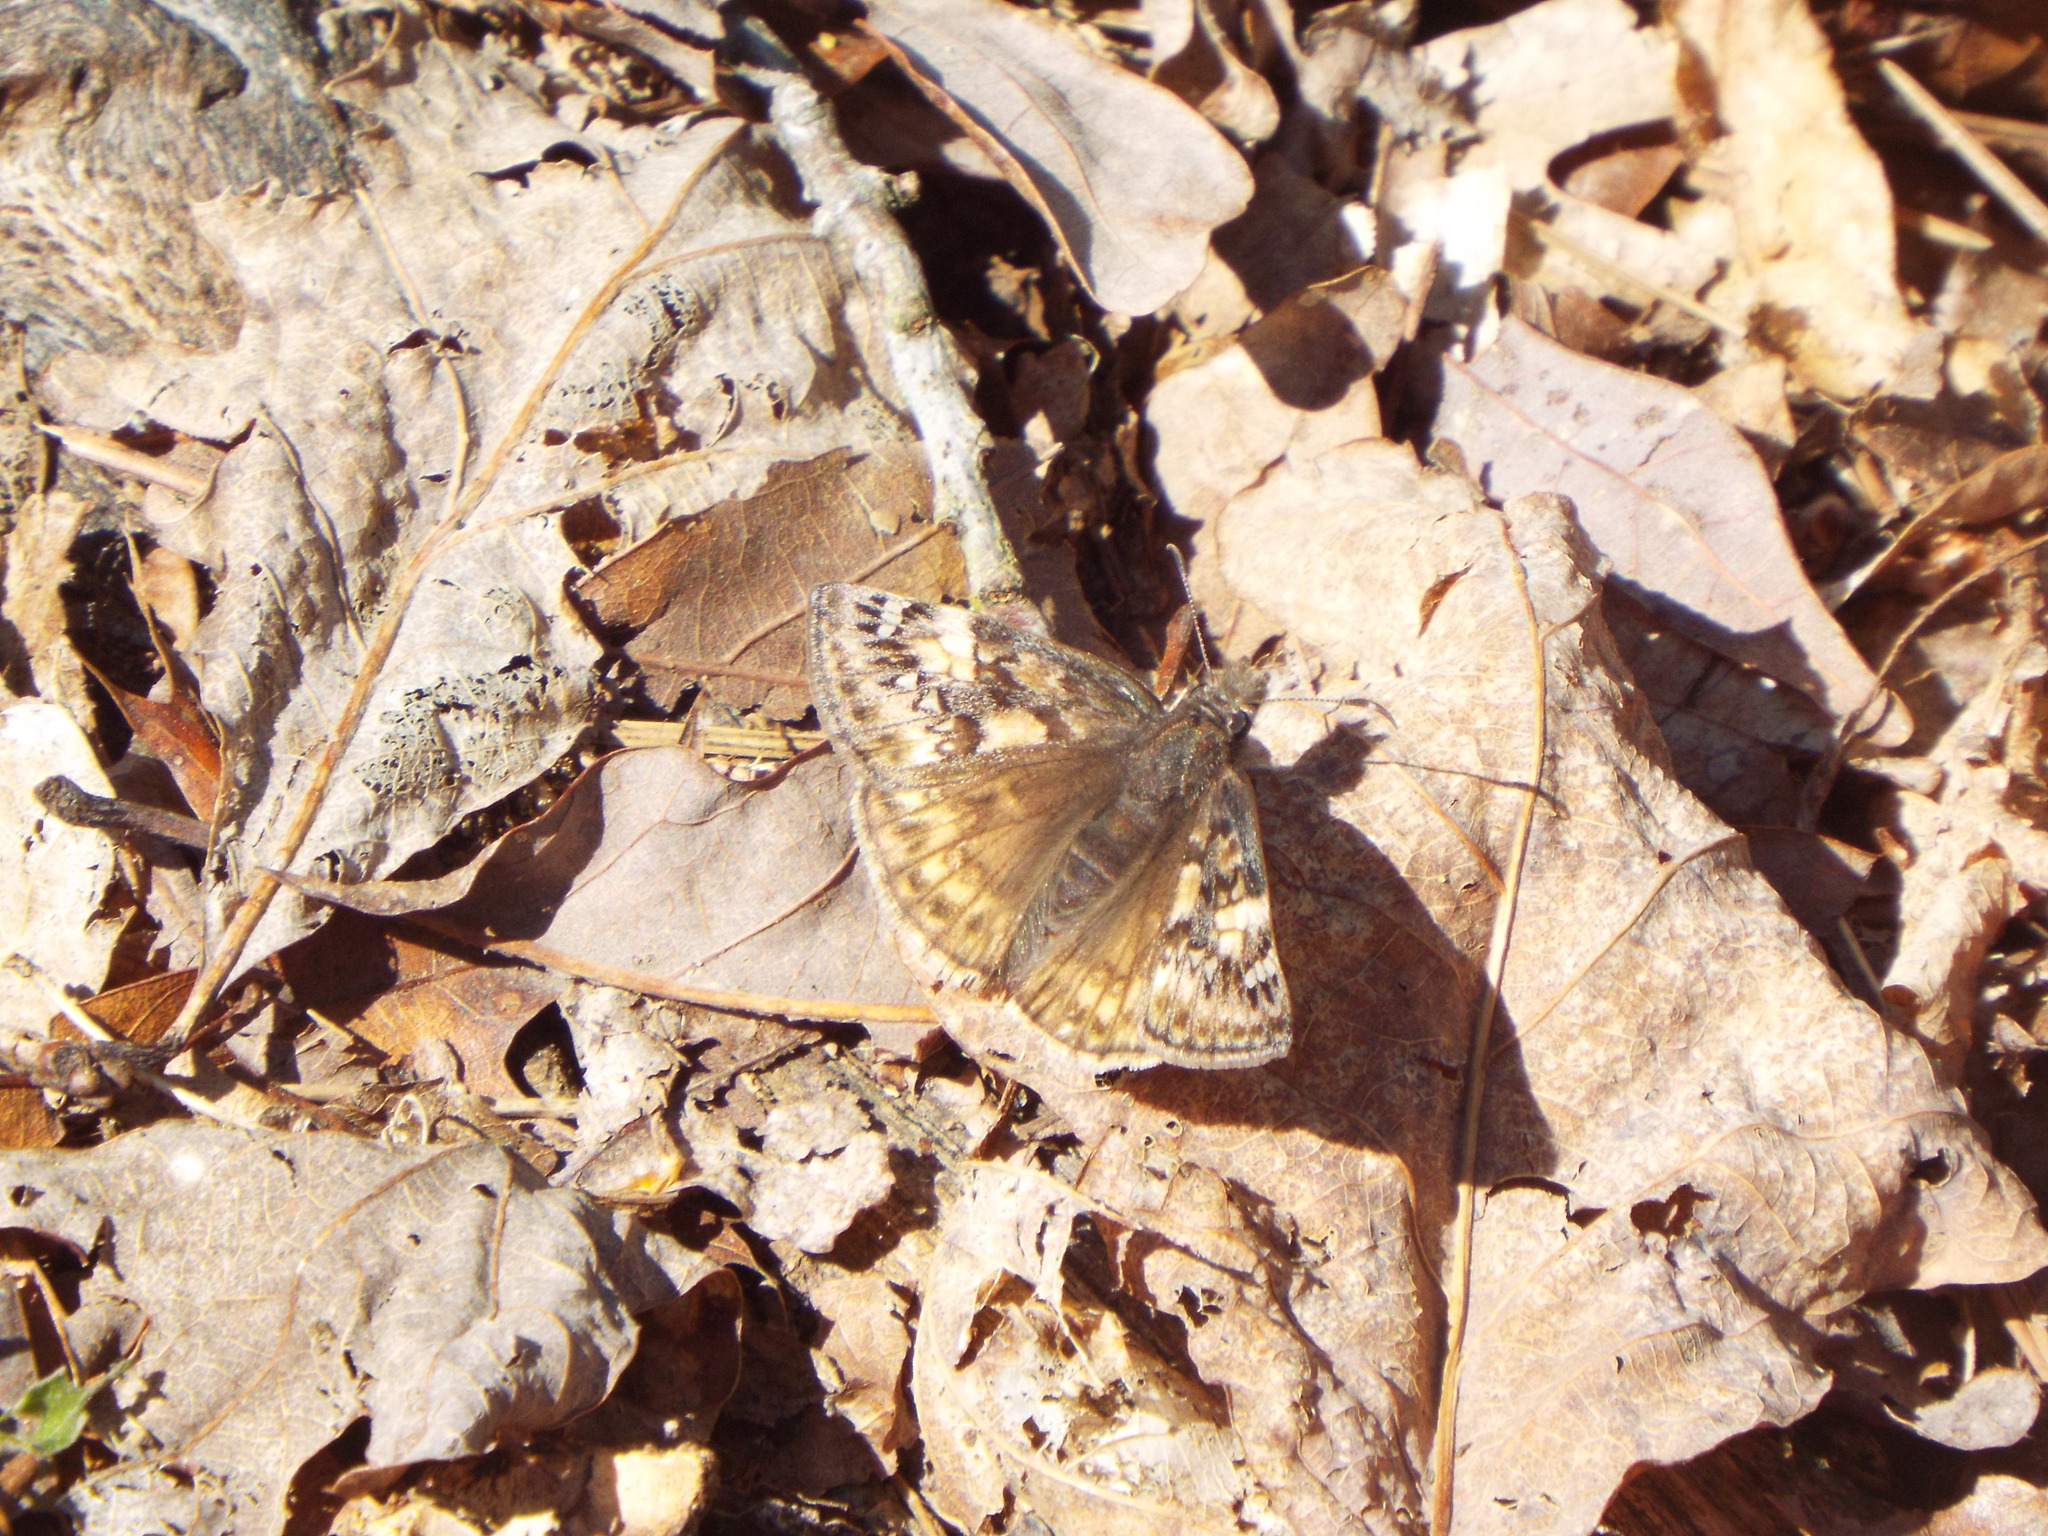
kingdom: Animalia
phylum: Arthropoda
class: Insecta
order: Lepidoptera
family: Hesperiidae
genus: Erynnis
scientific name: Erynnis juvenalis
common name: Juvenal's duskywing
